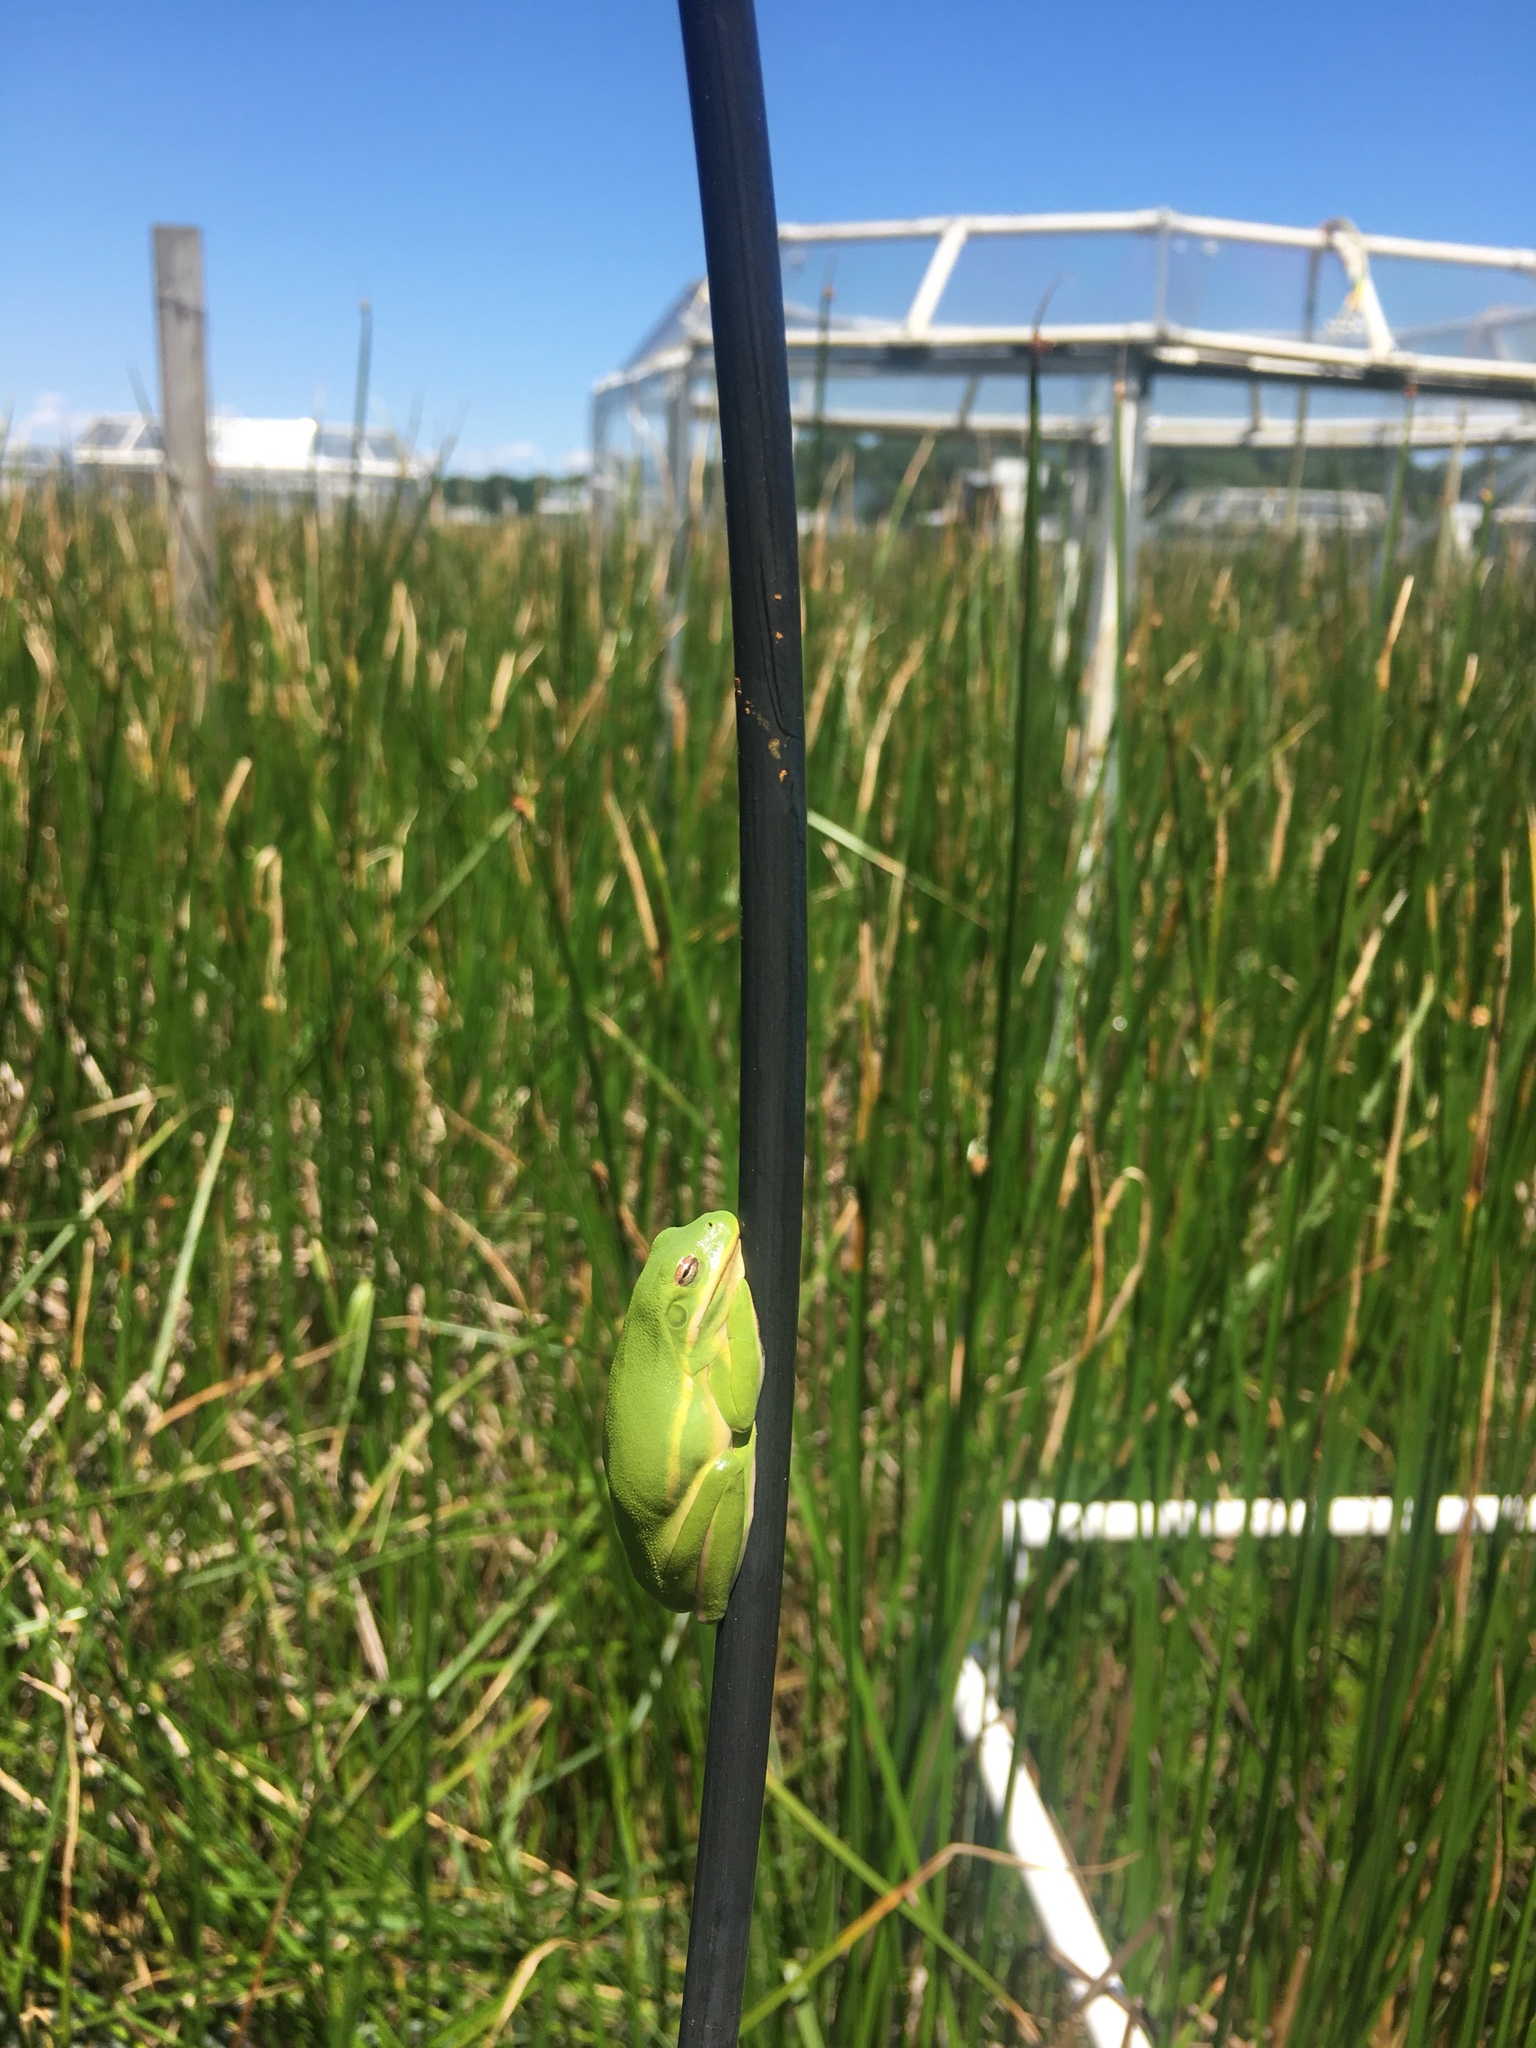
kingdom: Animalia
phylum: Chordata
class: Amphibia
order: Anura
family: Hylidae
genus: Dryophytes
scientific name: Dryophytes cinereus
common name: Green treefrog
